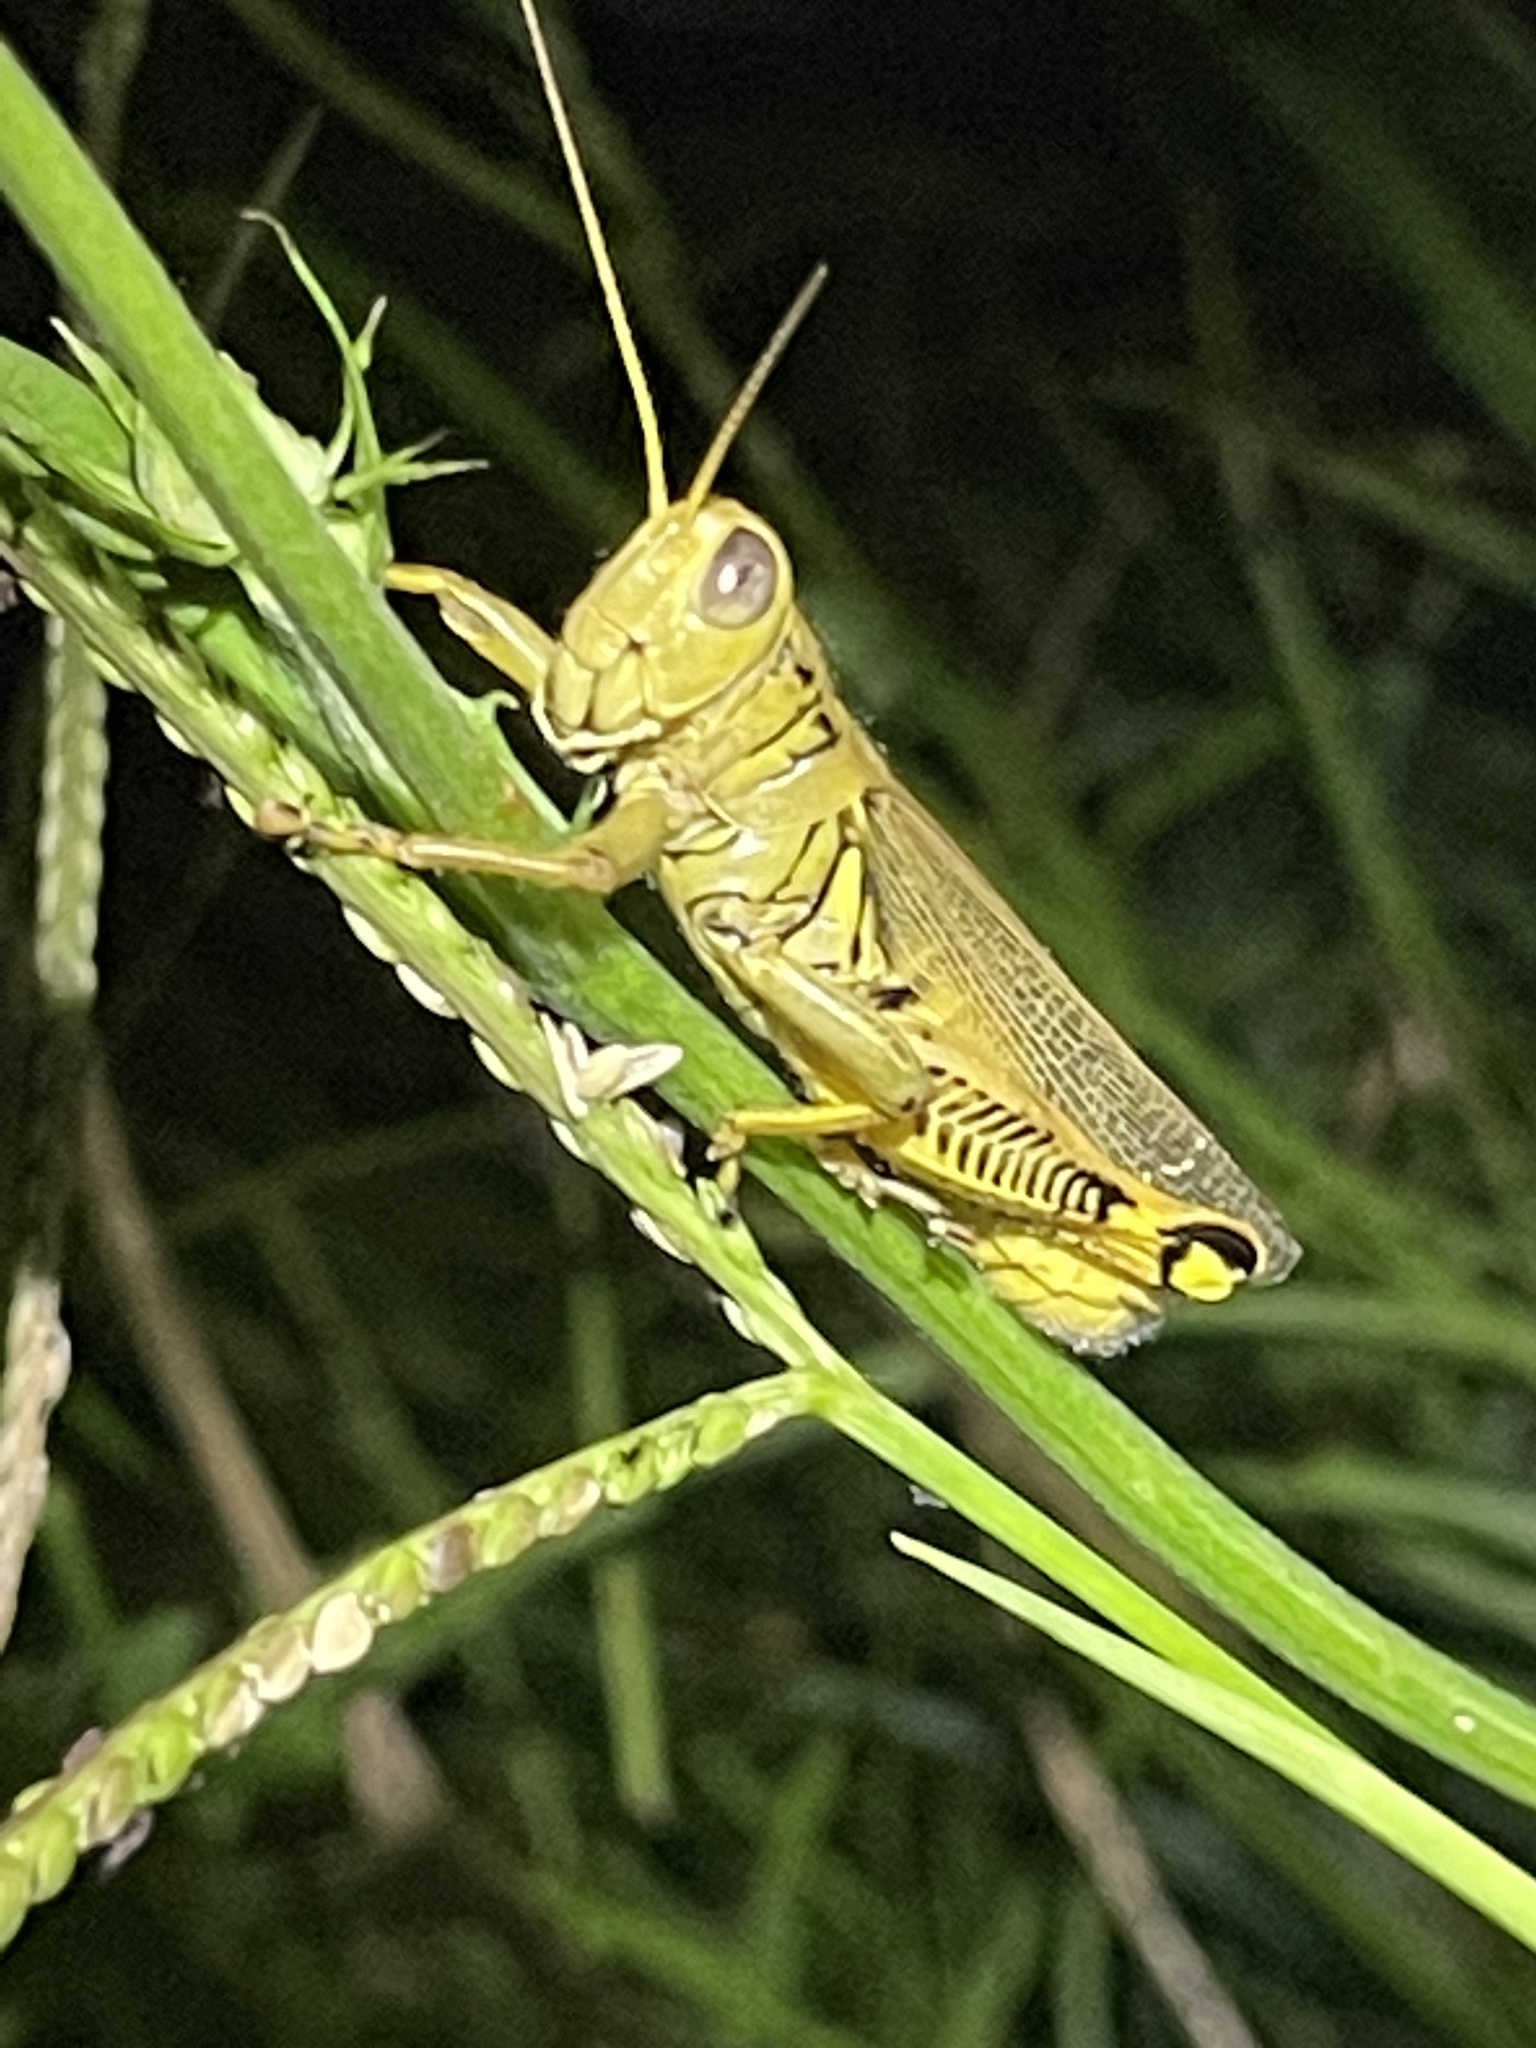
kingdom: Animalia
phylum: Arthropoda
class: Insecta
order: Orthoptera
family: Acrididae
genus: Melanoplus
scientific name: Melanoplus differentialis
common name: Differential grasshopper
